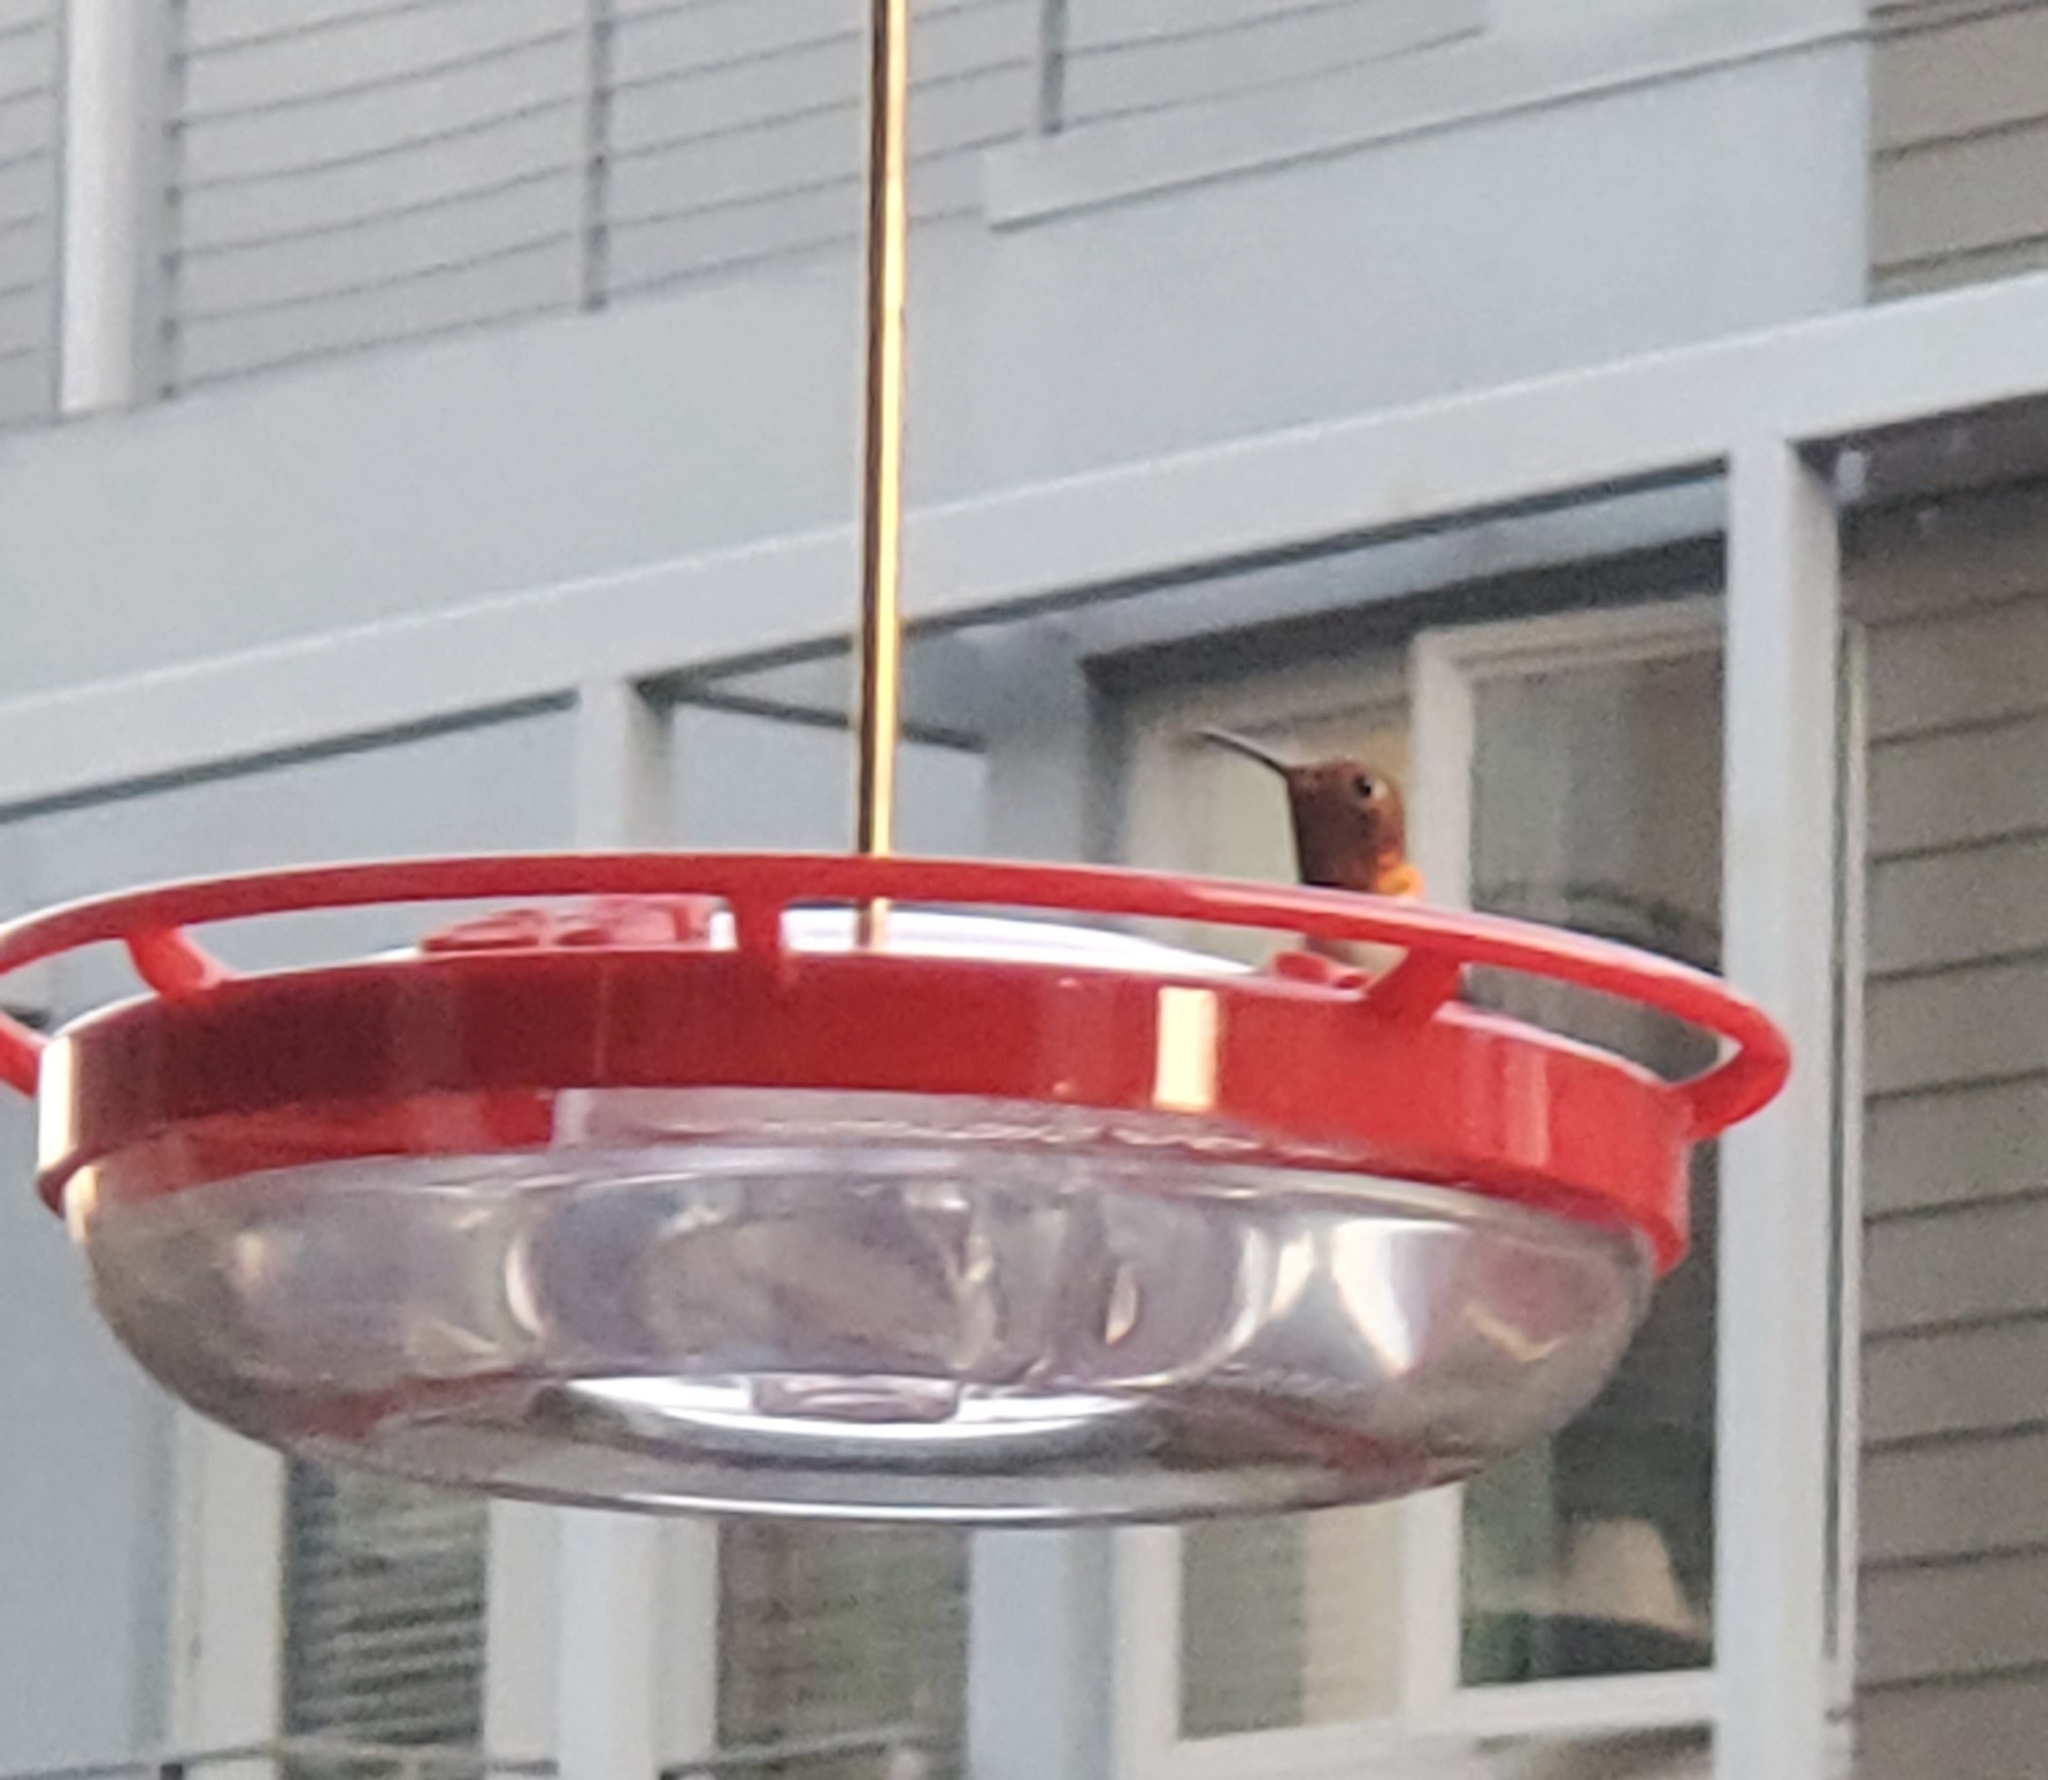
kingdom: Animalia
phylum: Chordata
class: Aves
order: Apodiformes
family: Trochilidae
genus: Selasphorus
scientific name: Selasphorus sasin
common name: Allen's hummingbird
